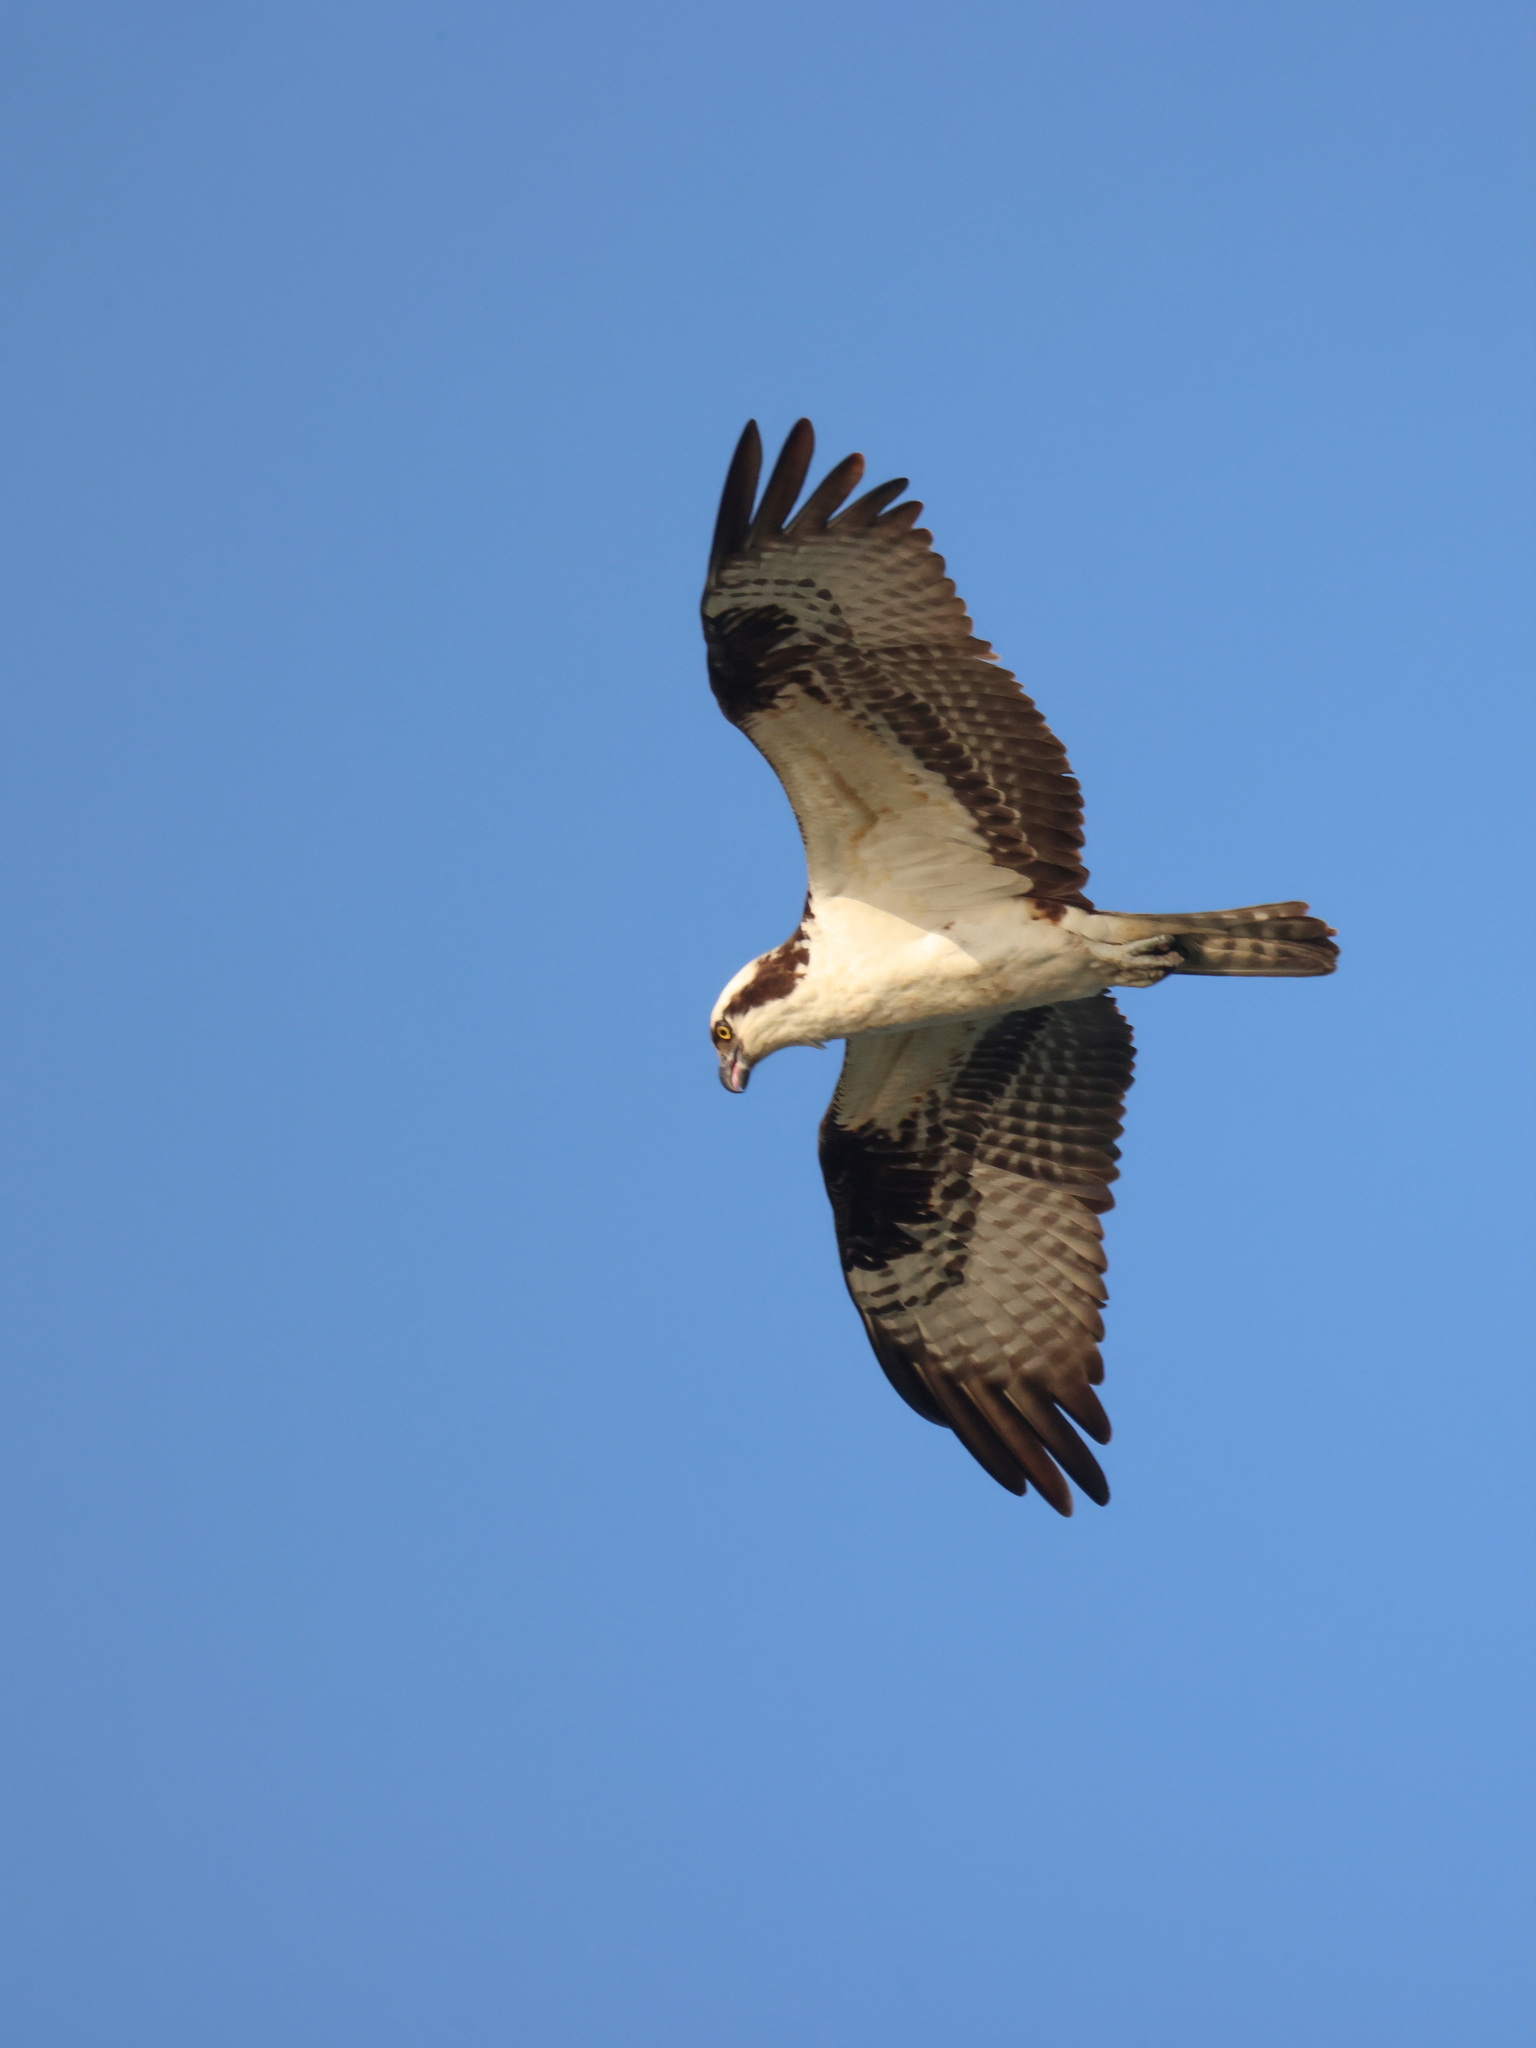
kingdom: Animalia
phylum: Chordata
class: Aves
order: Accipitriformes
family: Pandionidae
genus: Pandion
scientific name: Pandion haliaetus
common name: Osprey
